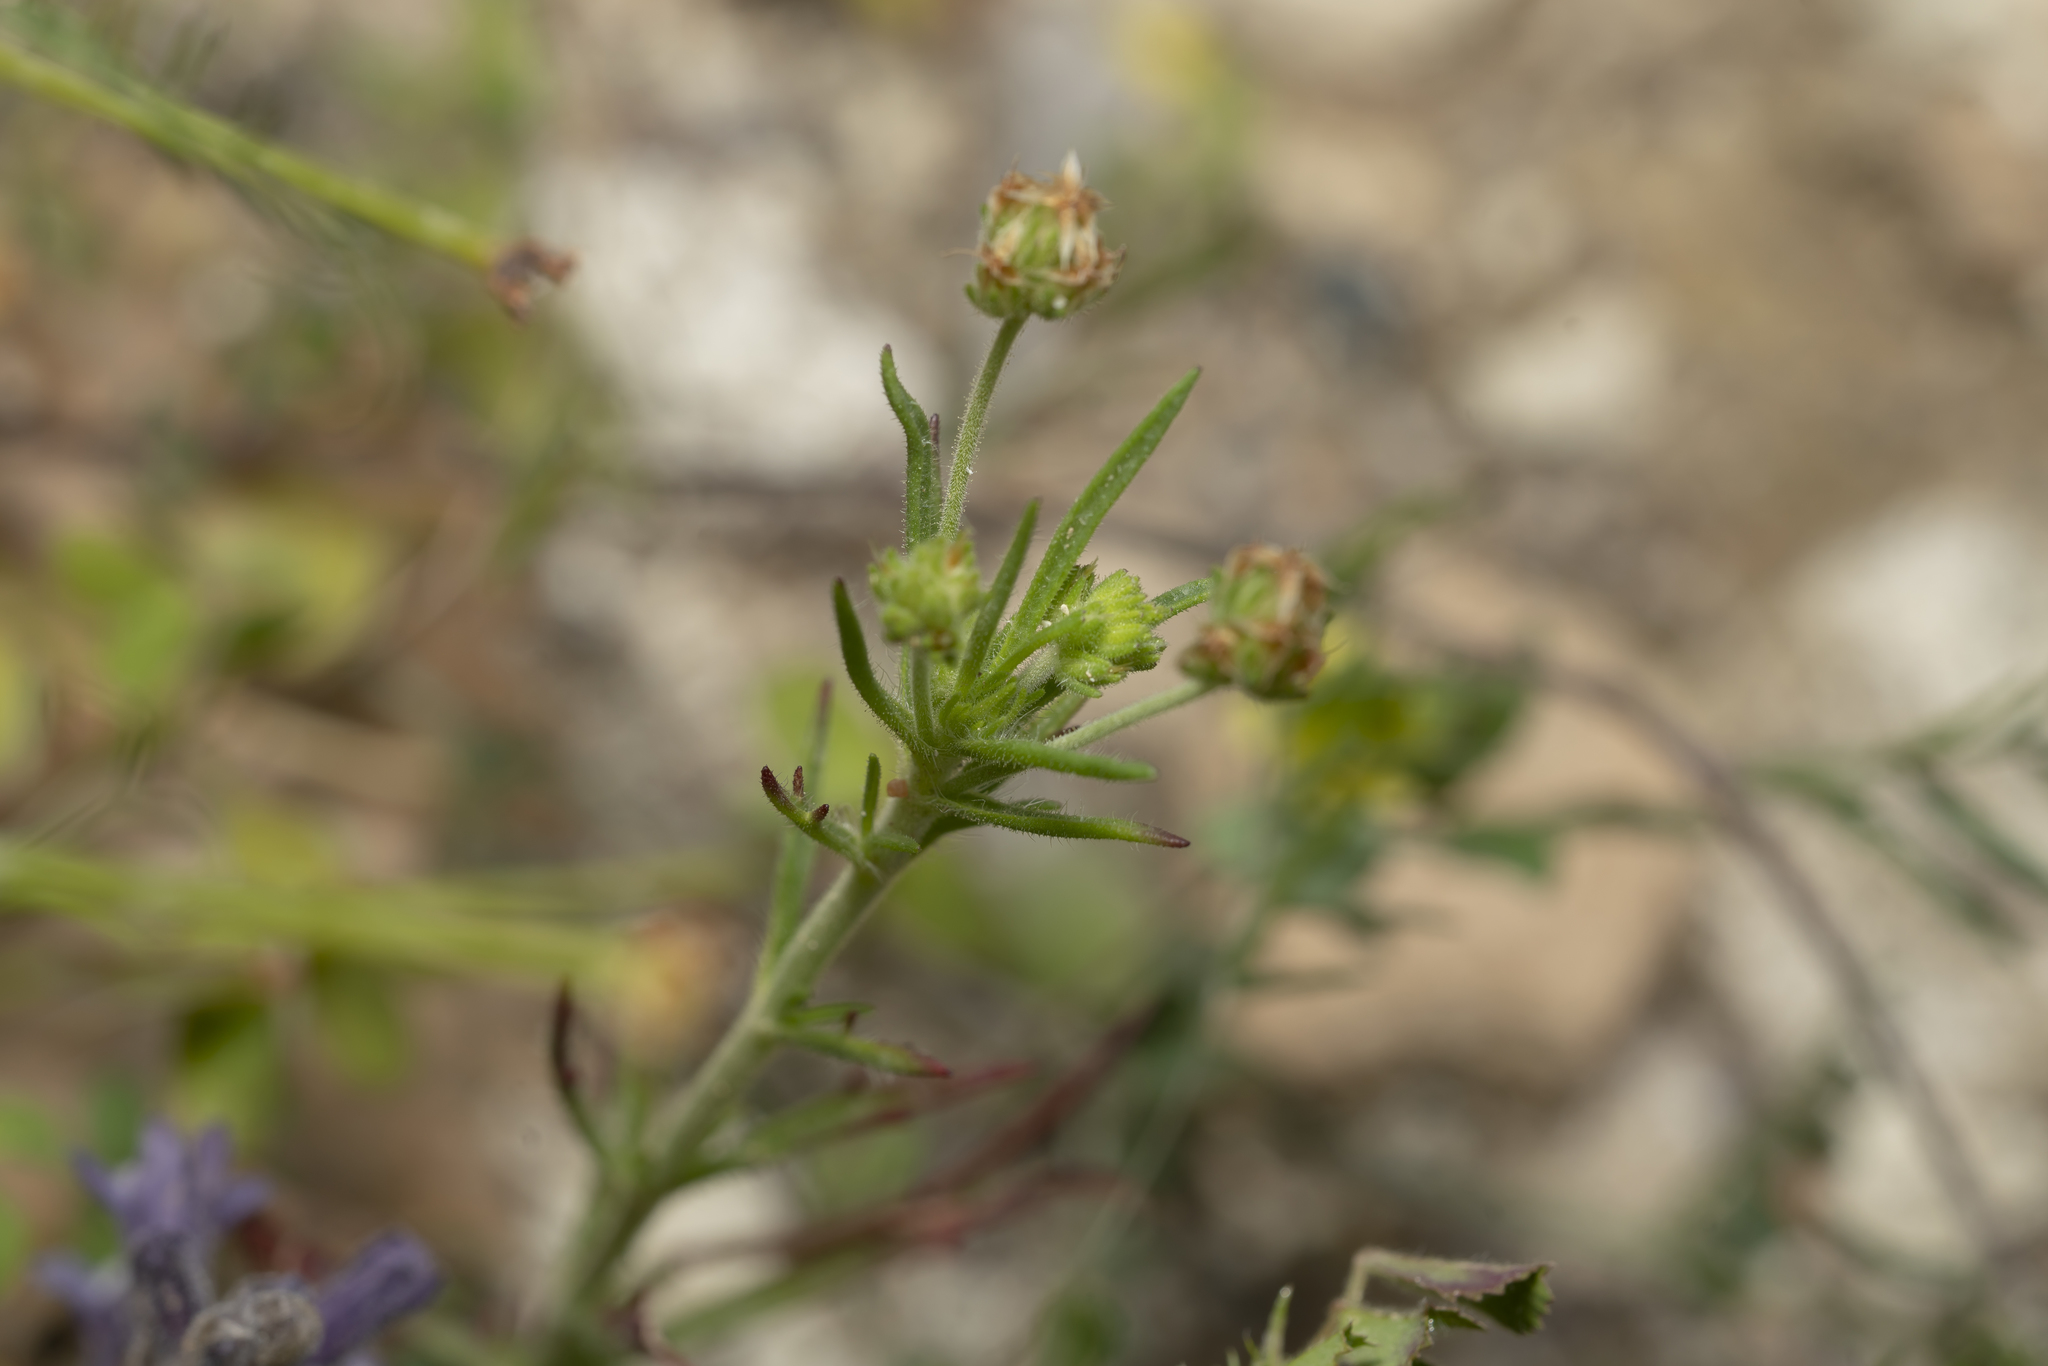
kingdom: Plantae
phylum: Tracheophyta
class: Magnoliopsida
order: Lamiales
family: Plantaginaceae
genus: Plantago
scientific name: Plantago afra
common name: Glandular plantain
